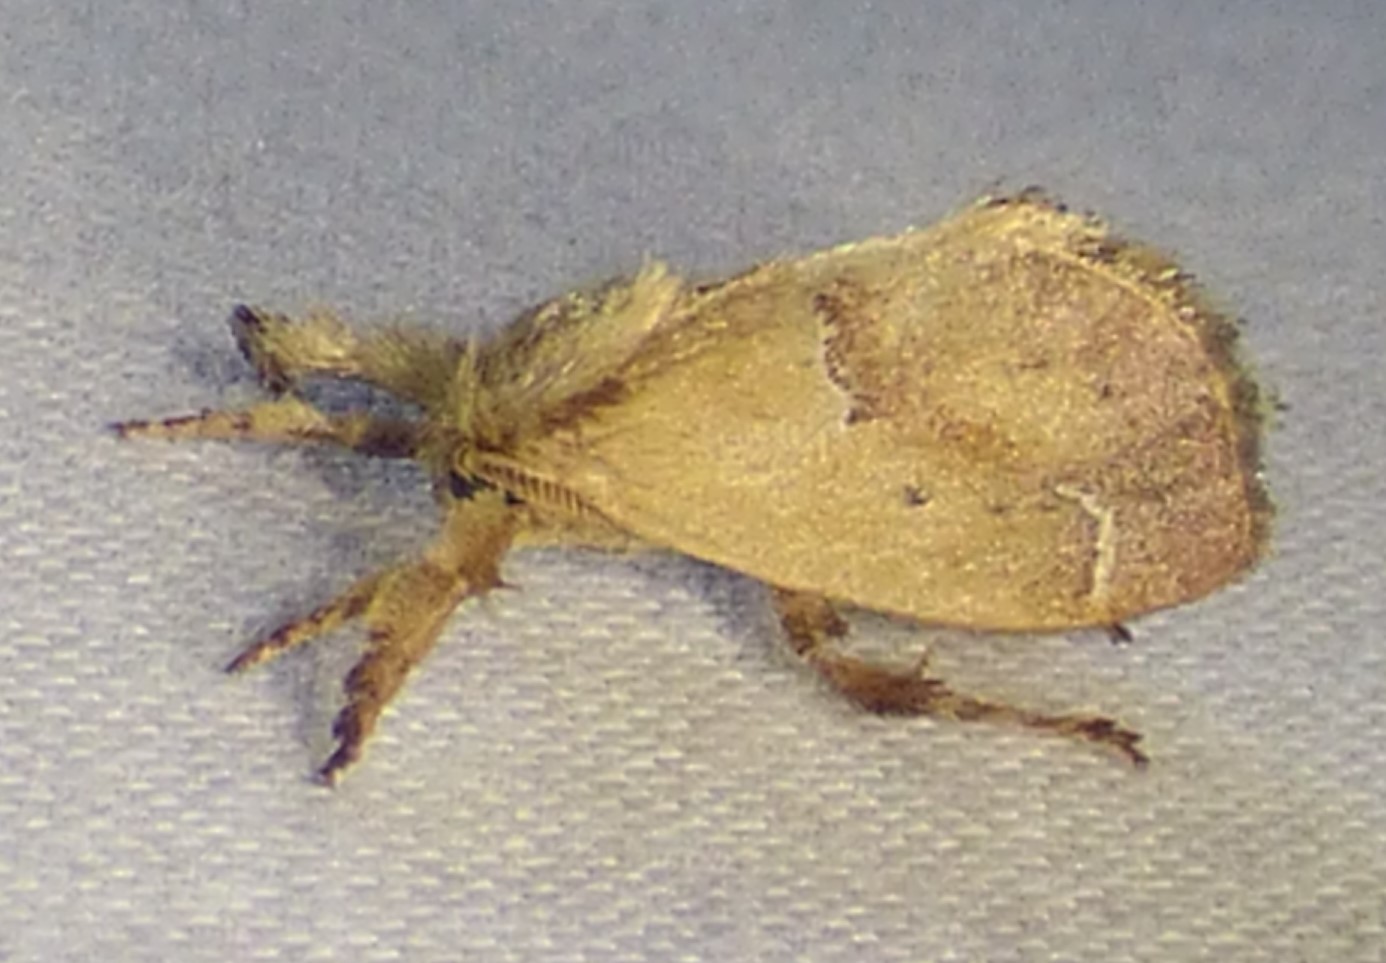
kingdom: Animalia
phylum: Arthropoda
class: Insecta
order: Lepidoptera
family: Limacodidae
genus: Adoneta
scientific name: Adoneta bicaudata
